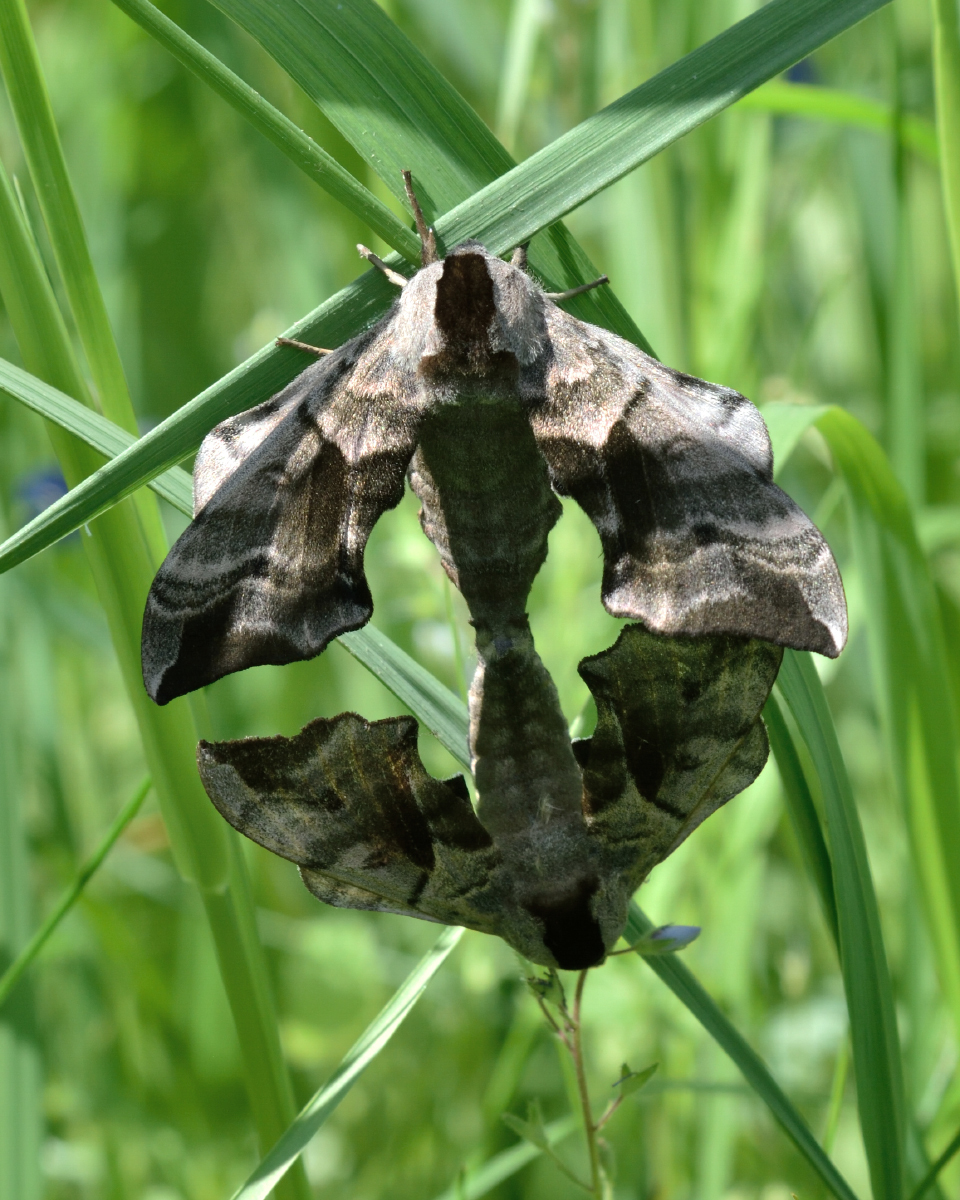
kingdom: Animalia
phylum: Arthropoda
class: Insecta
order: Lepidoptera
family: Sphingidae
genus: Smerinthus
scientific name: Smerinthus ocellata
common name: Eyed hawk-moth
